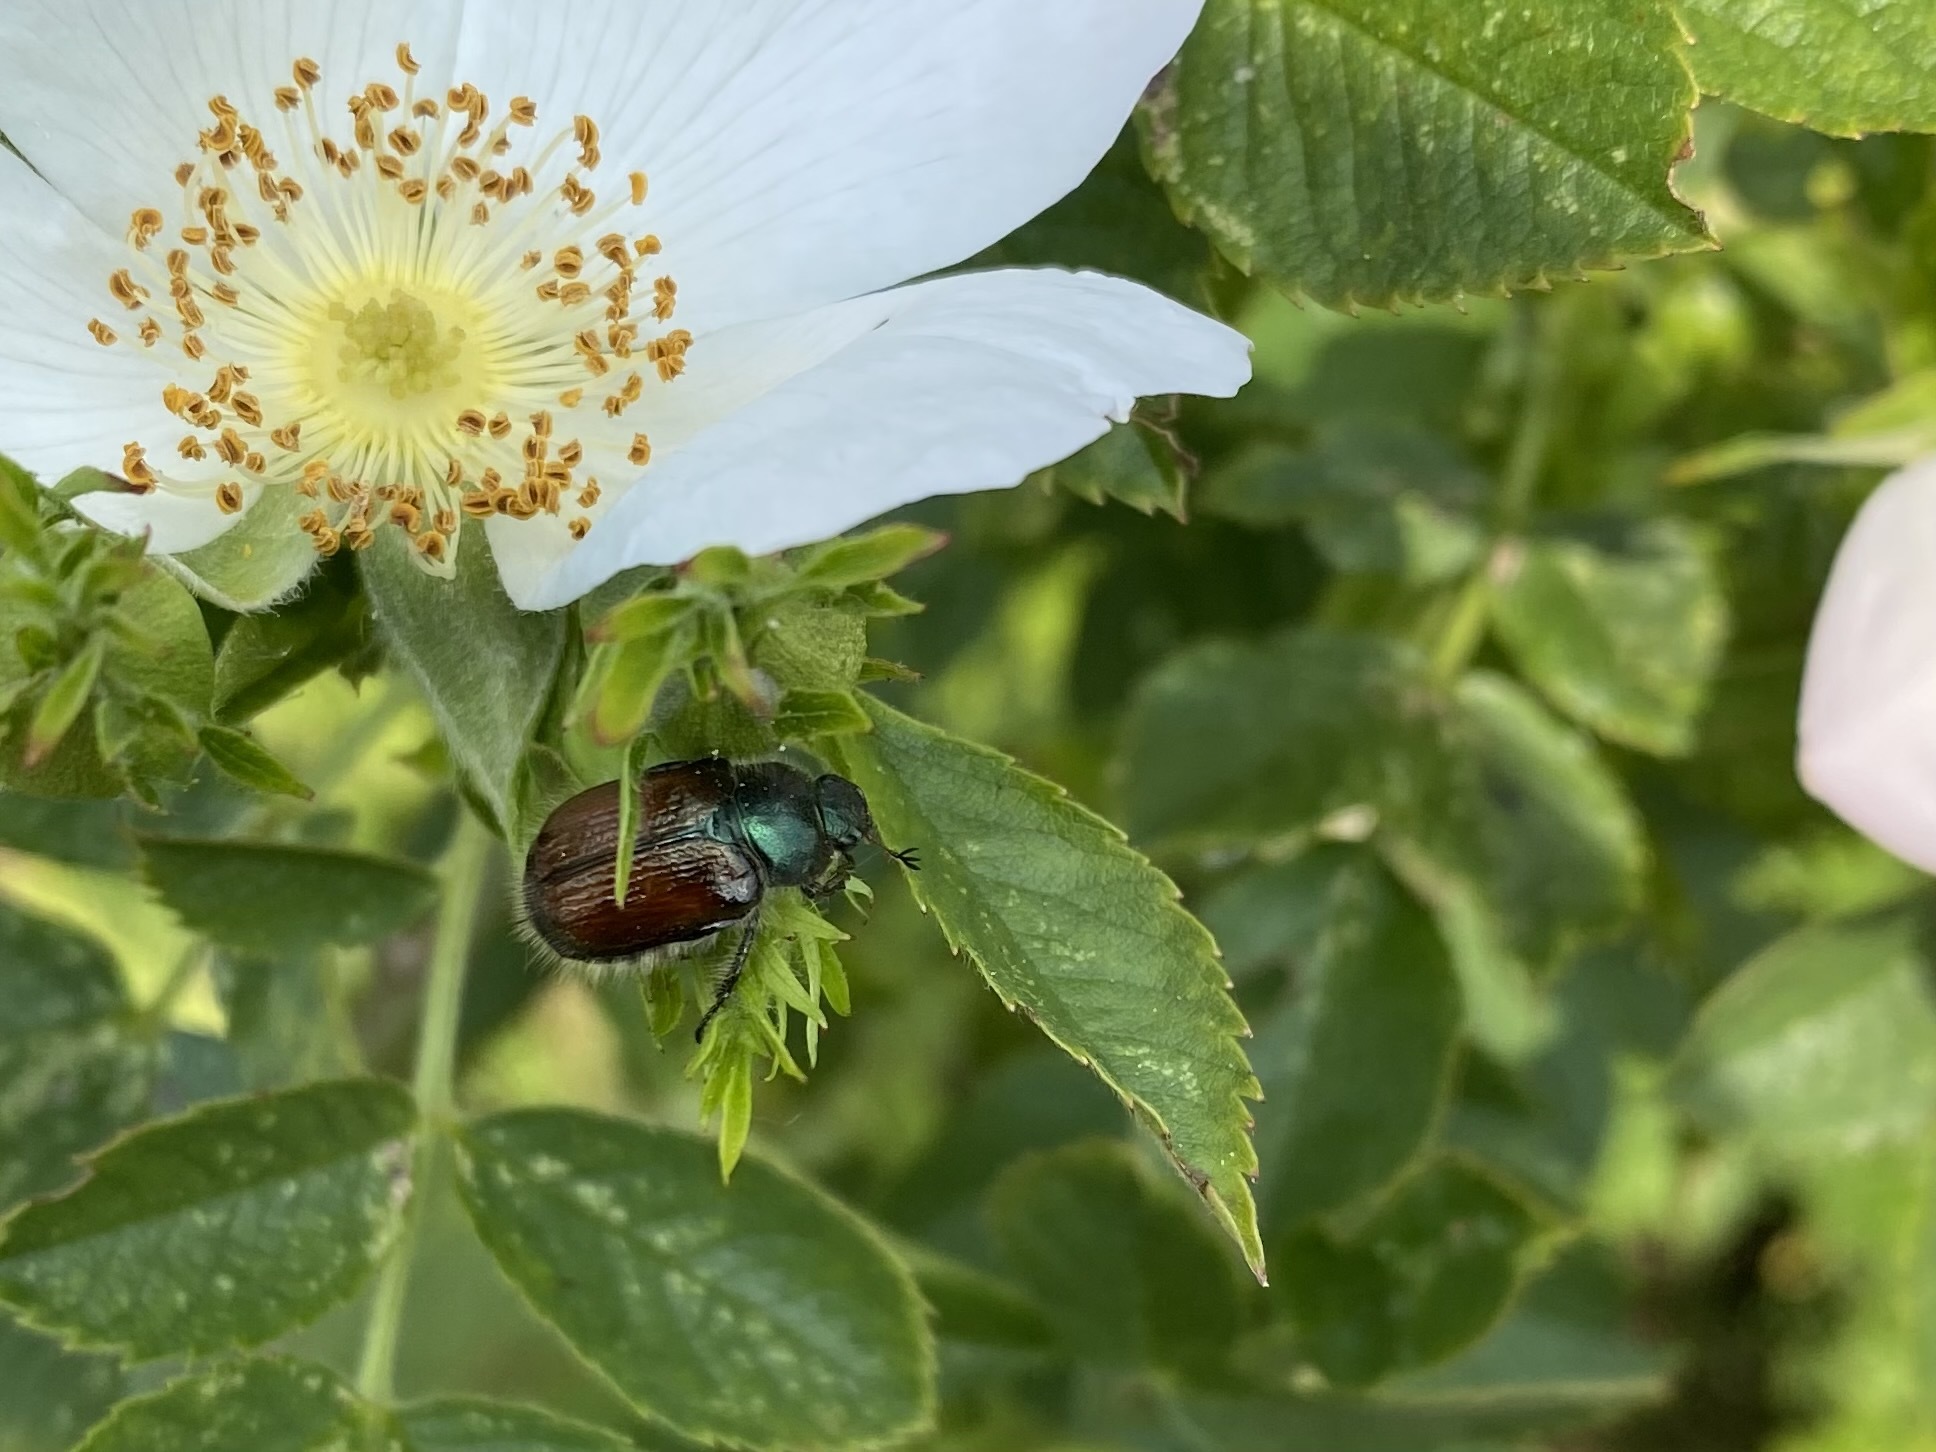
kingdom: Animalia
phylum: Arthropoda
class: Insecta
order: Coleoptera
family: Scarabaeidae
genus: Phyllopertha
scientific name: Phyllopertha horticola
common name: Garden chafer
